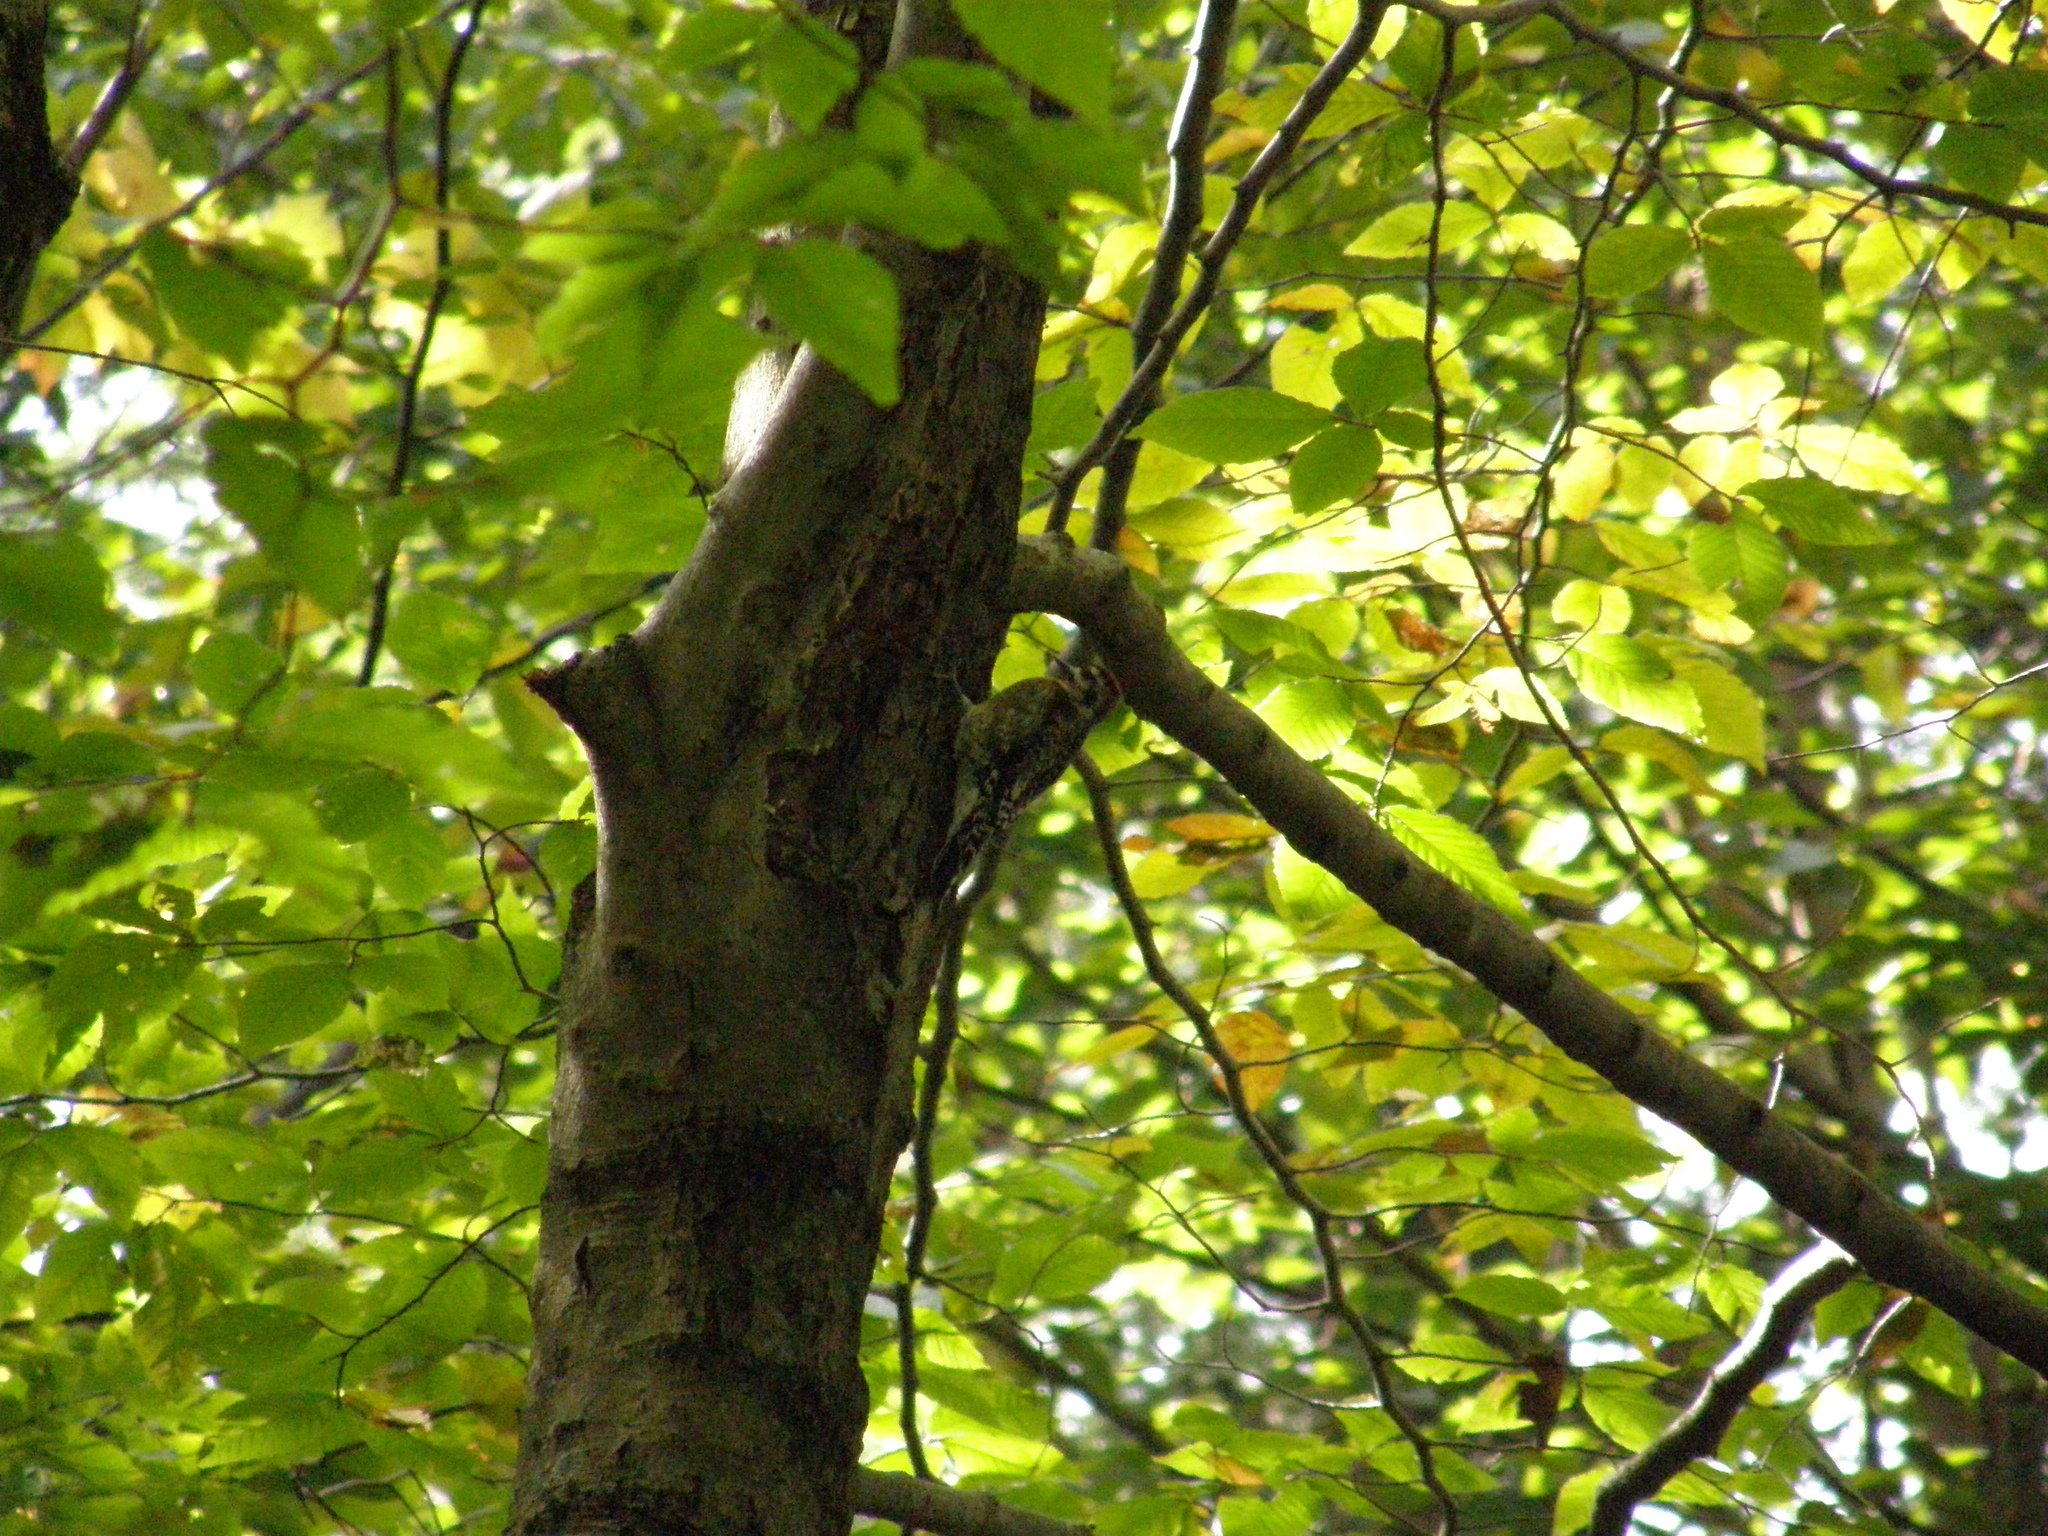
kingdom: Animalia
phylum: Chordata
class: Aves
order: Piciformes
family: Picidae
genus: Sphyrapicus
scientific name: Sphyrapicus varius
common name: Yellow-bellied sapsucker
